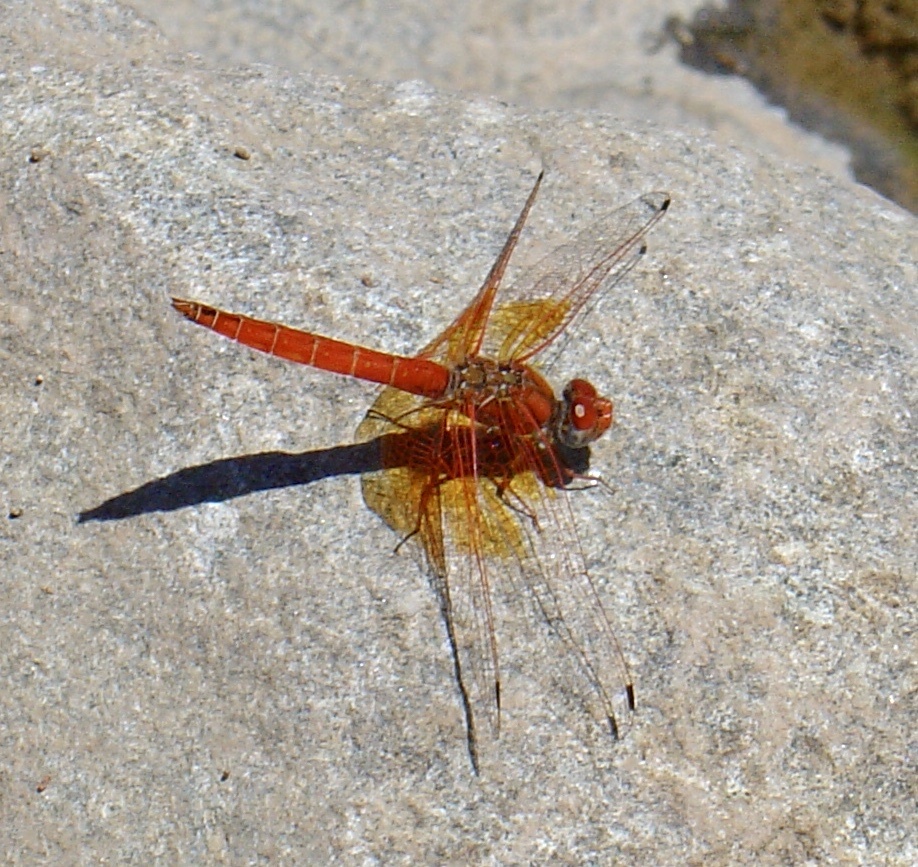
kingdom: Animalia
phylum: Arthropoda
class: Insecta
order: Odonata
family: Libellulidae
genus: Trithemis
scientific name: Trithemis kirbyi
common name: Kirby's dropwing
